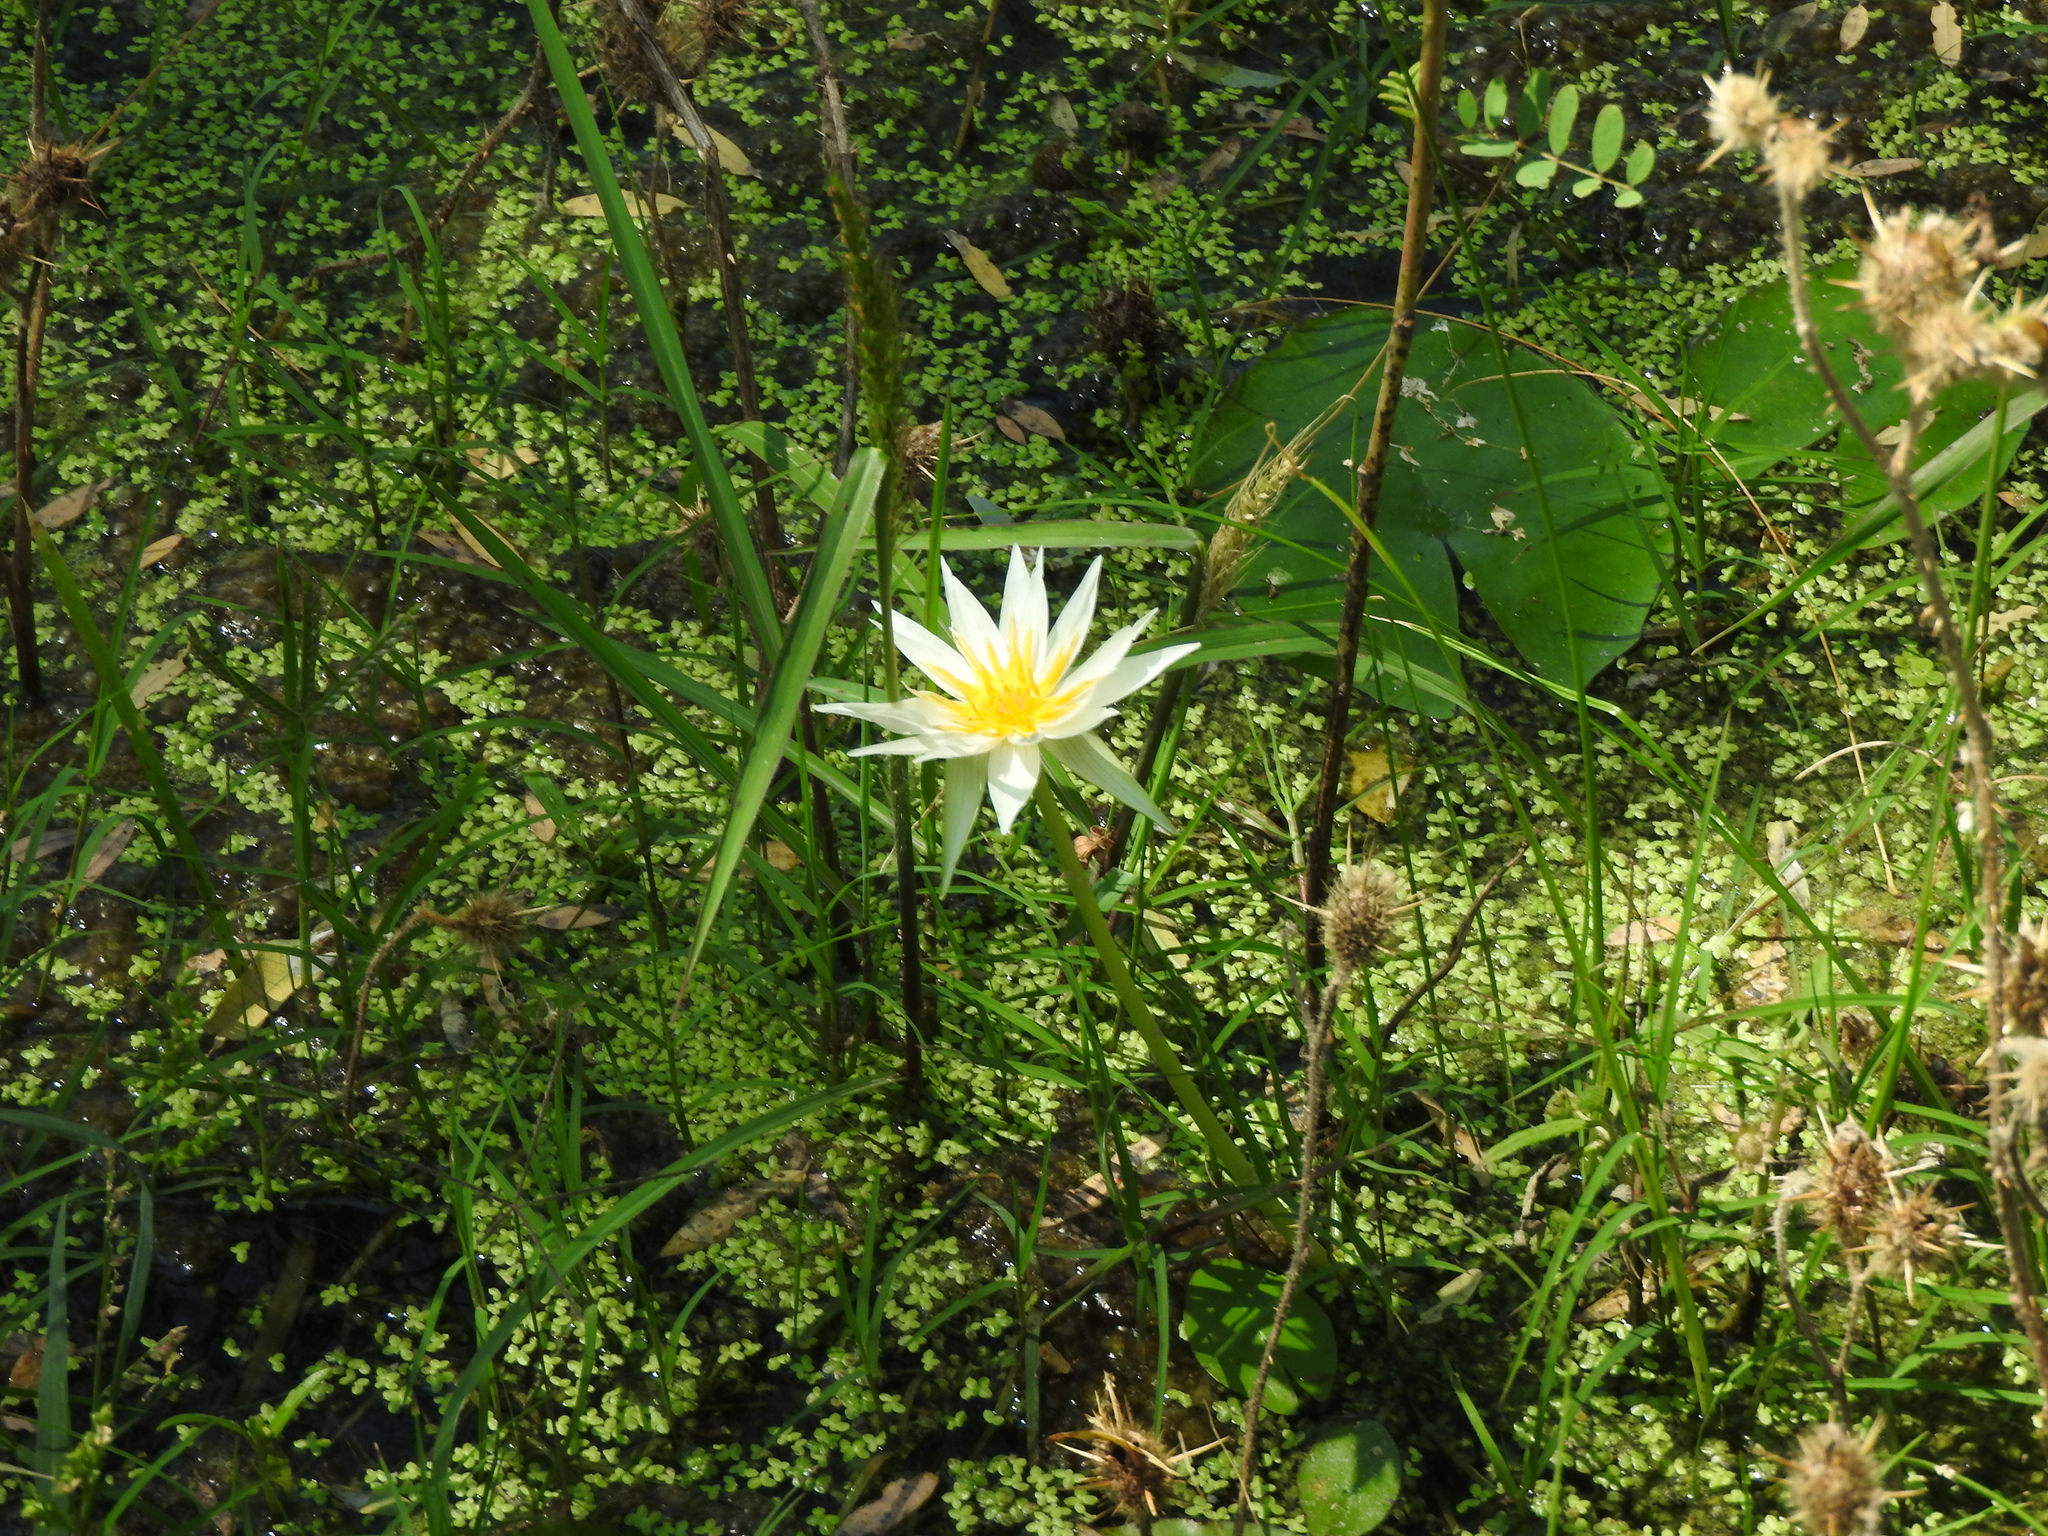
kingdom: Plantae
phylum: Tracheophyta
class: Magnoliopsida
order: Nymphaeales
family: Nymphaeaceae
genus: Nymphaea
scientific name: Nymphaea gracilis
